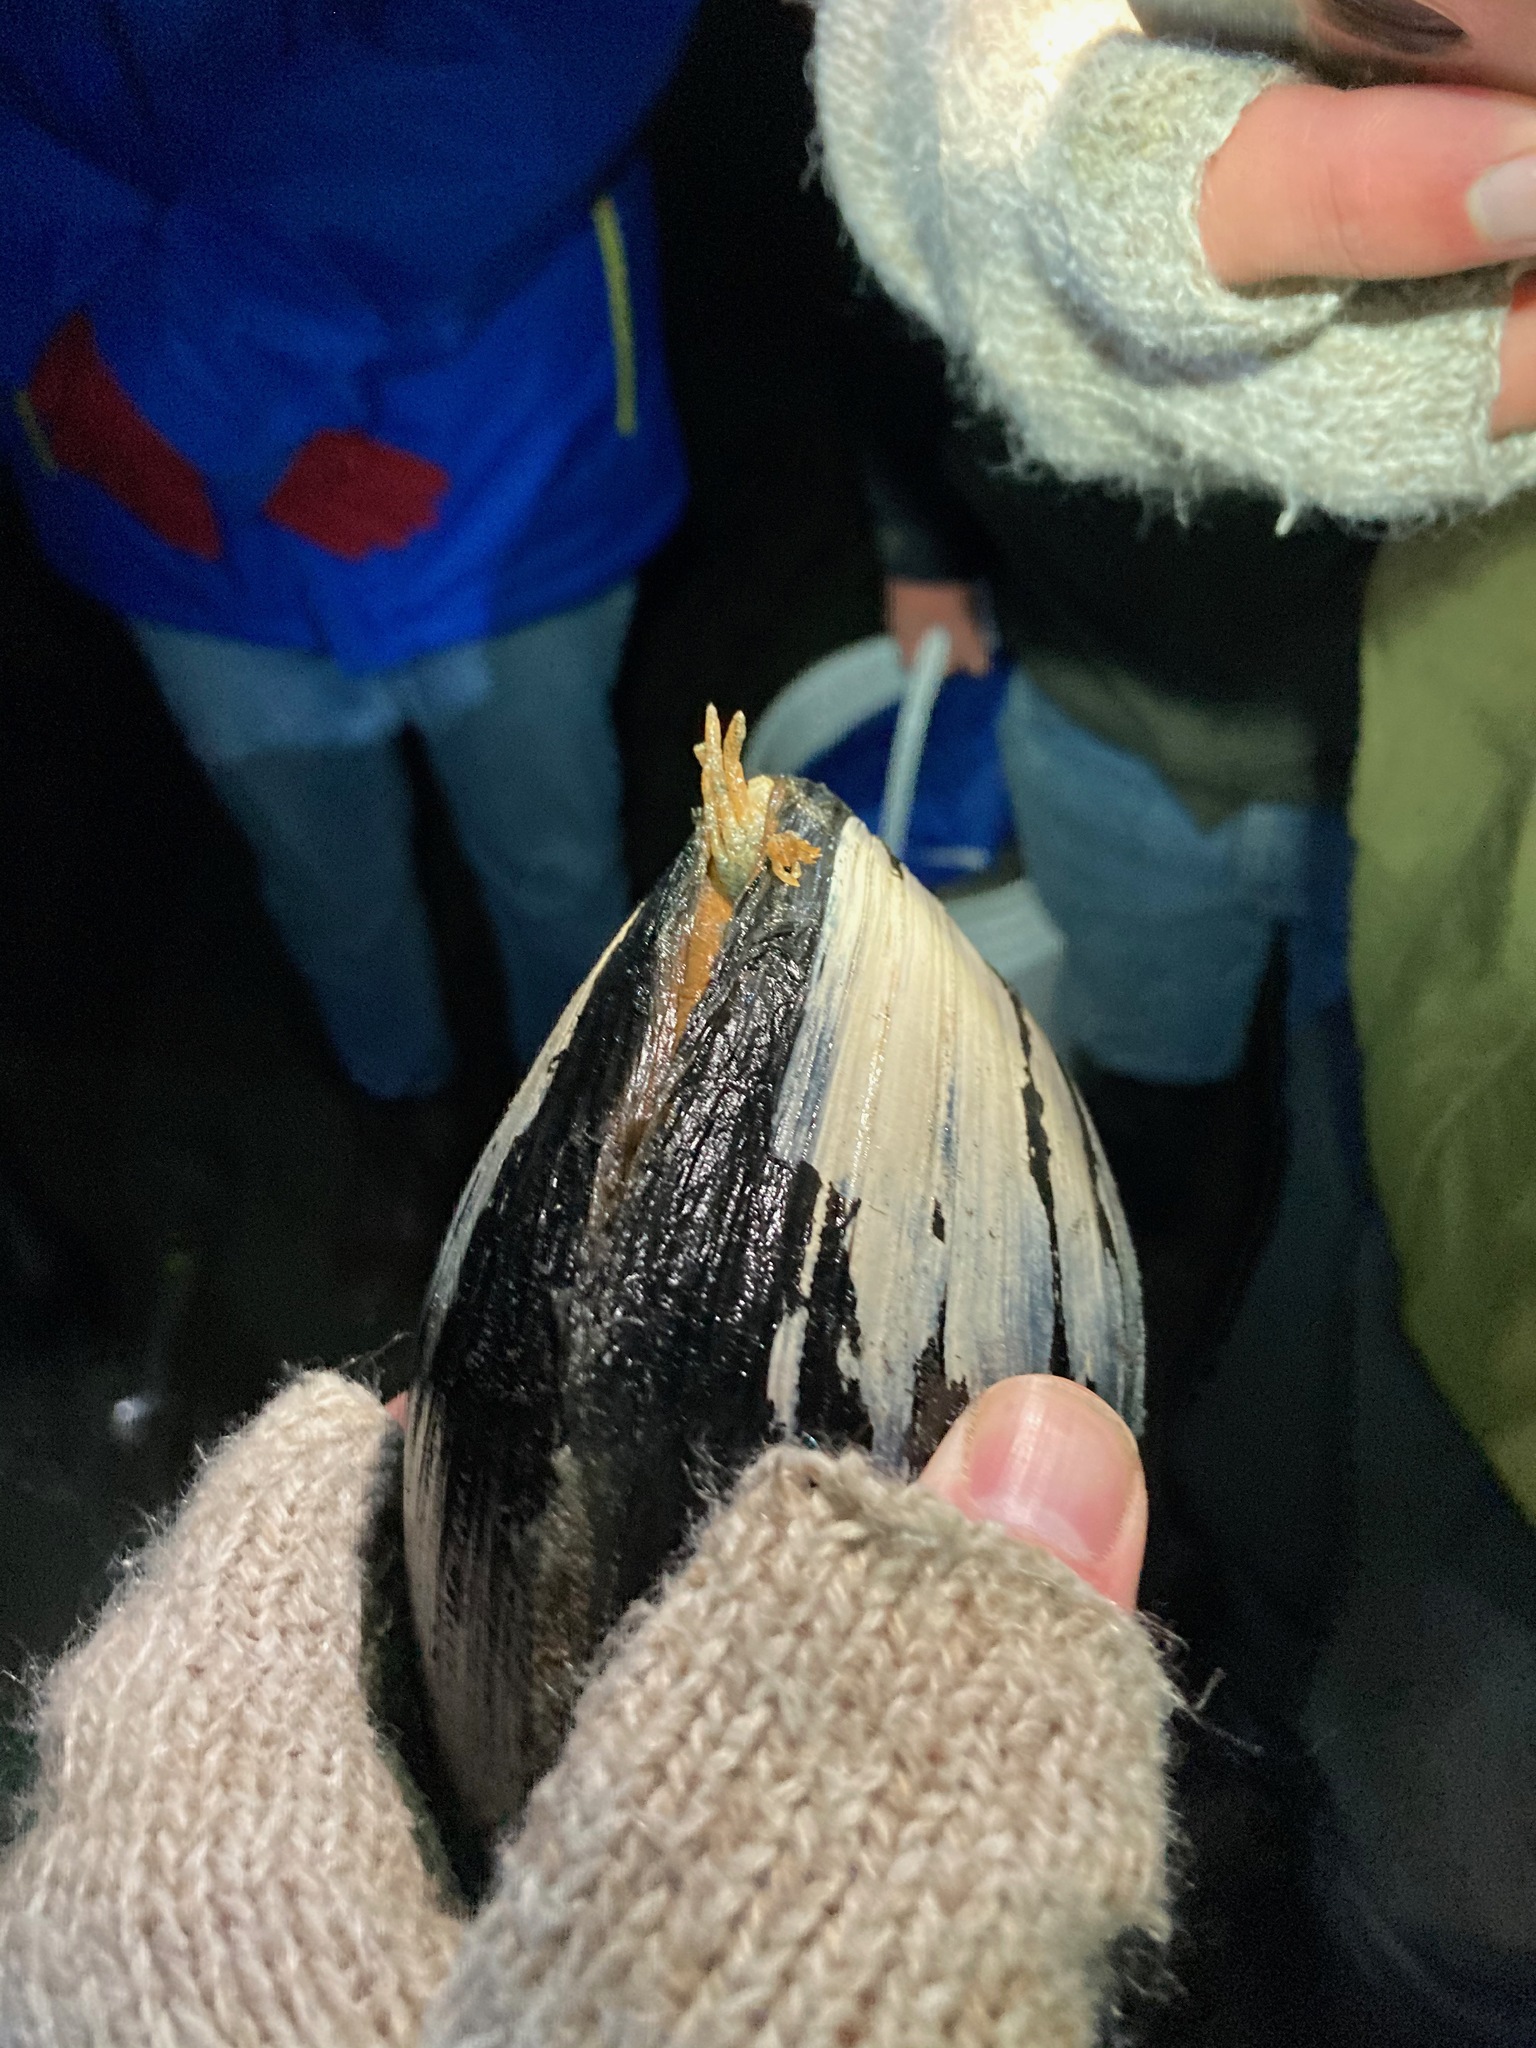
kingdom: Animalia
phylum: Arthropoda
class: Malacostraca
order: Decapoda
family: Pinnotheridae
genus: Scleroplax
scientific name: Scleroplax littoralis
